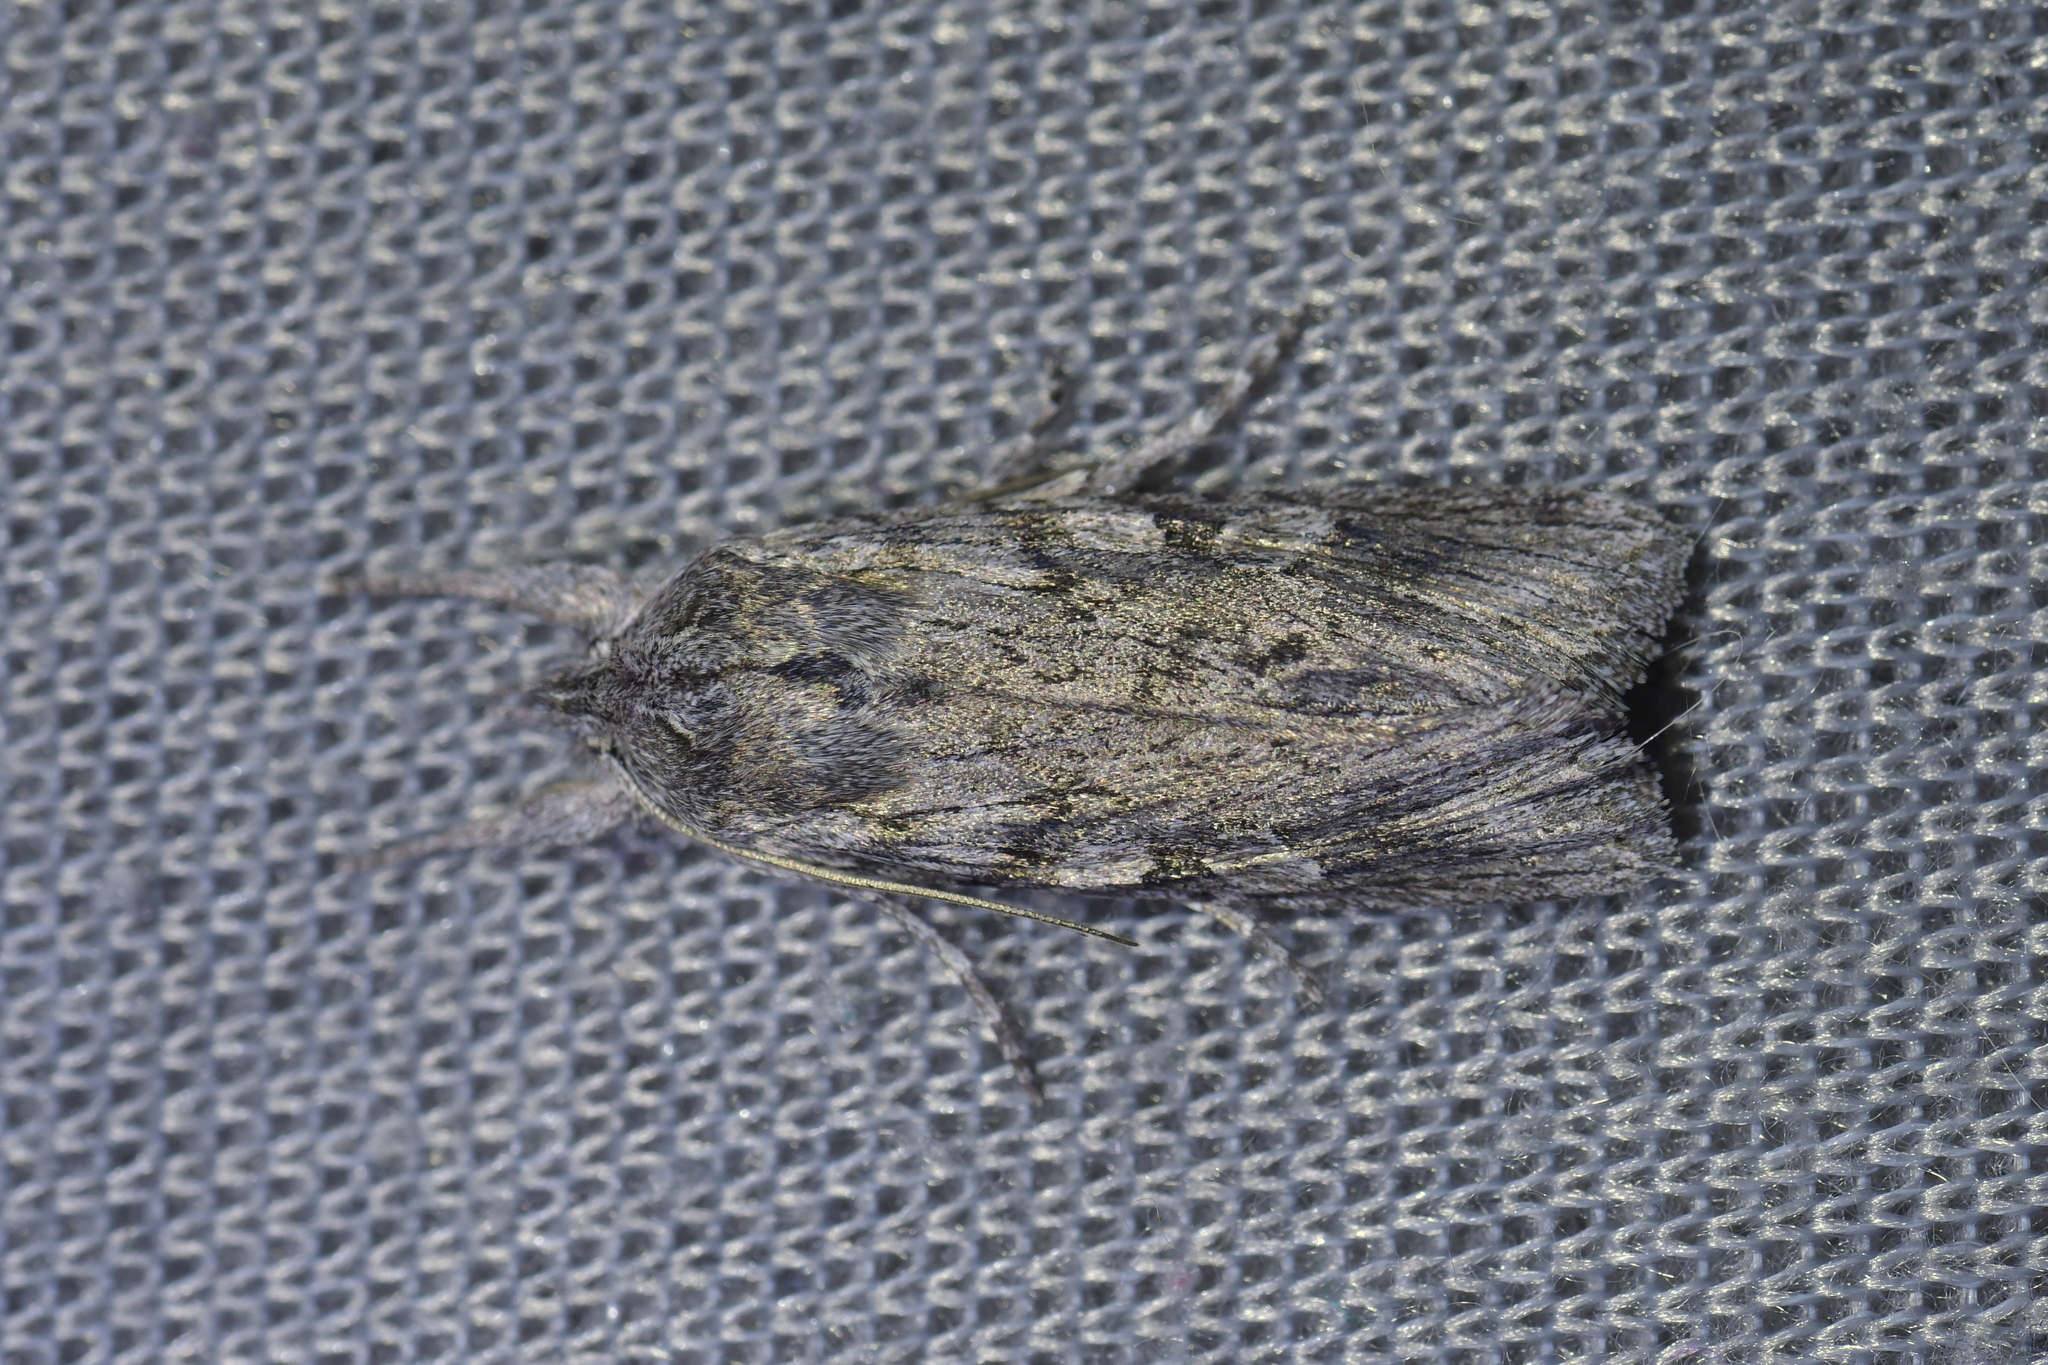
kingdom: Animalia
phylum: Arthropoda
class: Insecta
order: Lepidoptera
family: Noctuidae
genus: Physetica
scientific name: Physetica phricias
